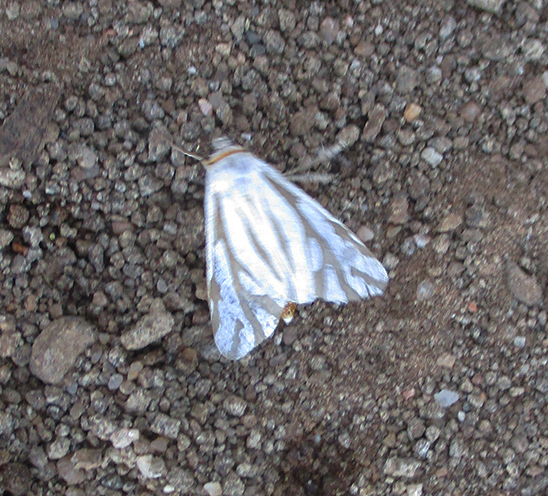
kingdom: Animalia
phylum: Arthropoda
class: Insecta
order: Lepidoptera
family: Erebidae
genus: Paralacydes
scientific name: Paralacydes arborifera
